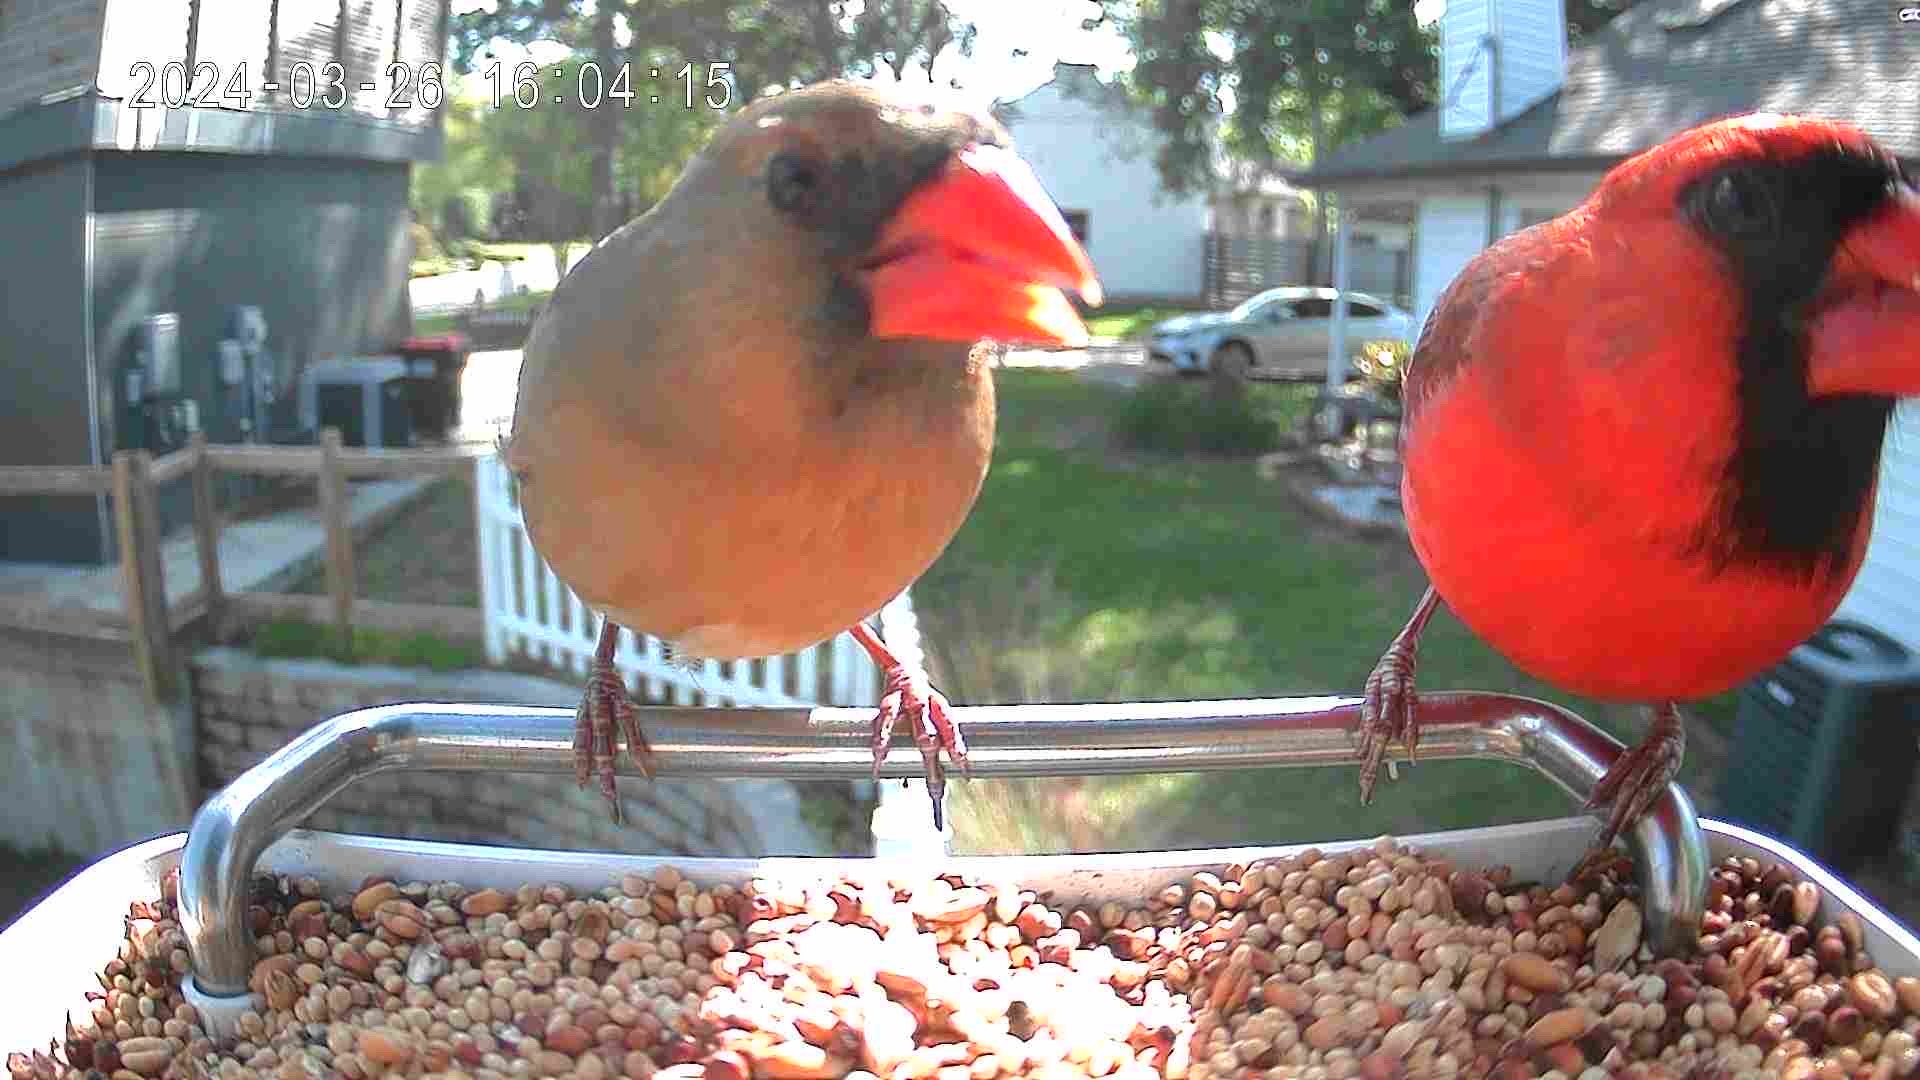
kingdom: Animalia
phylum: Chordata
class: Aves
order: Passeriformes
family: Cardinalidae
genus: Cardinalis
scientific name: Cardinalis cardinalis
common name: Northern cardinal
